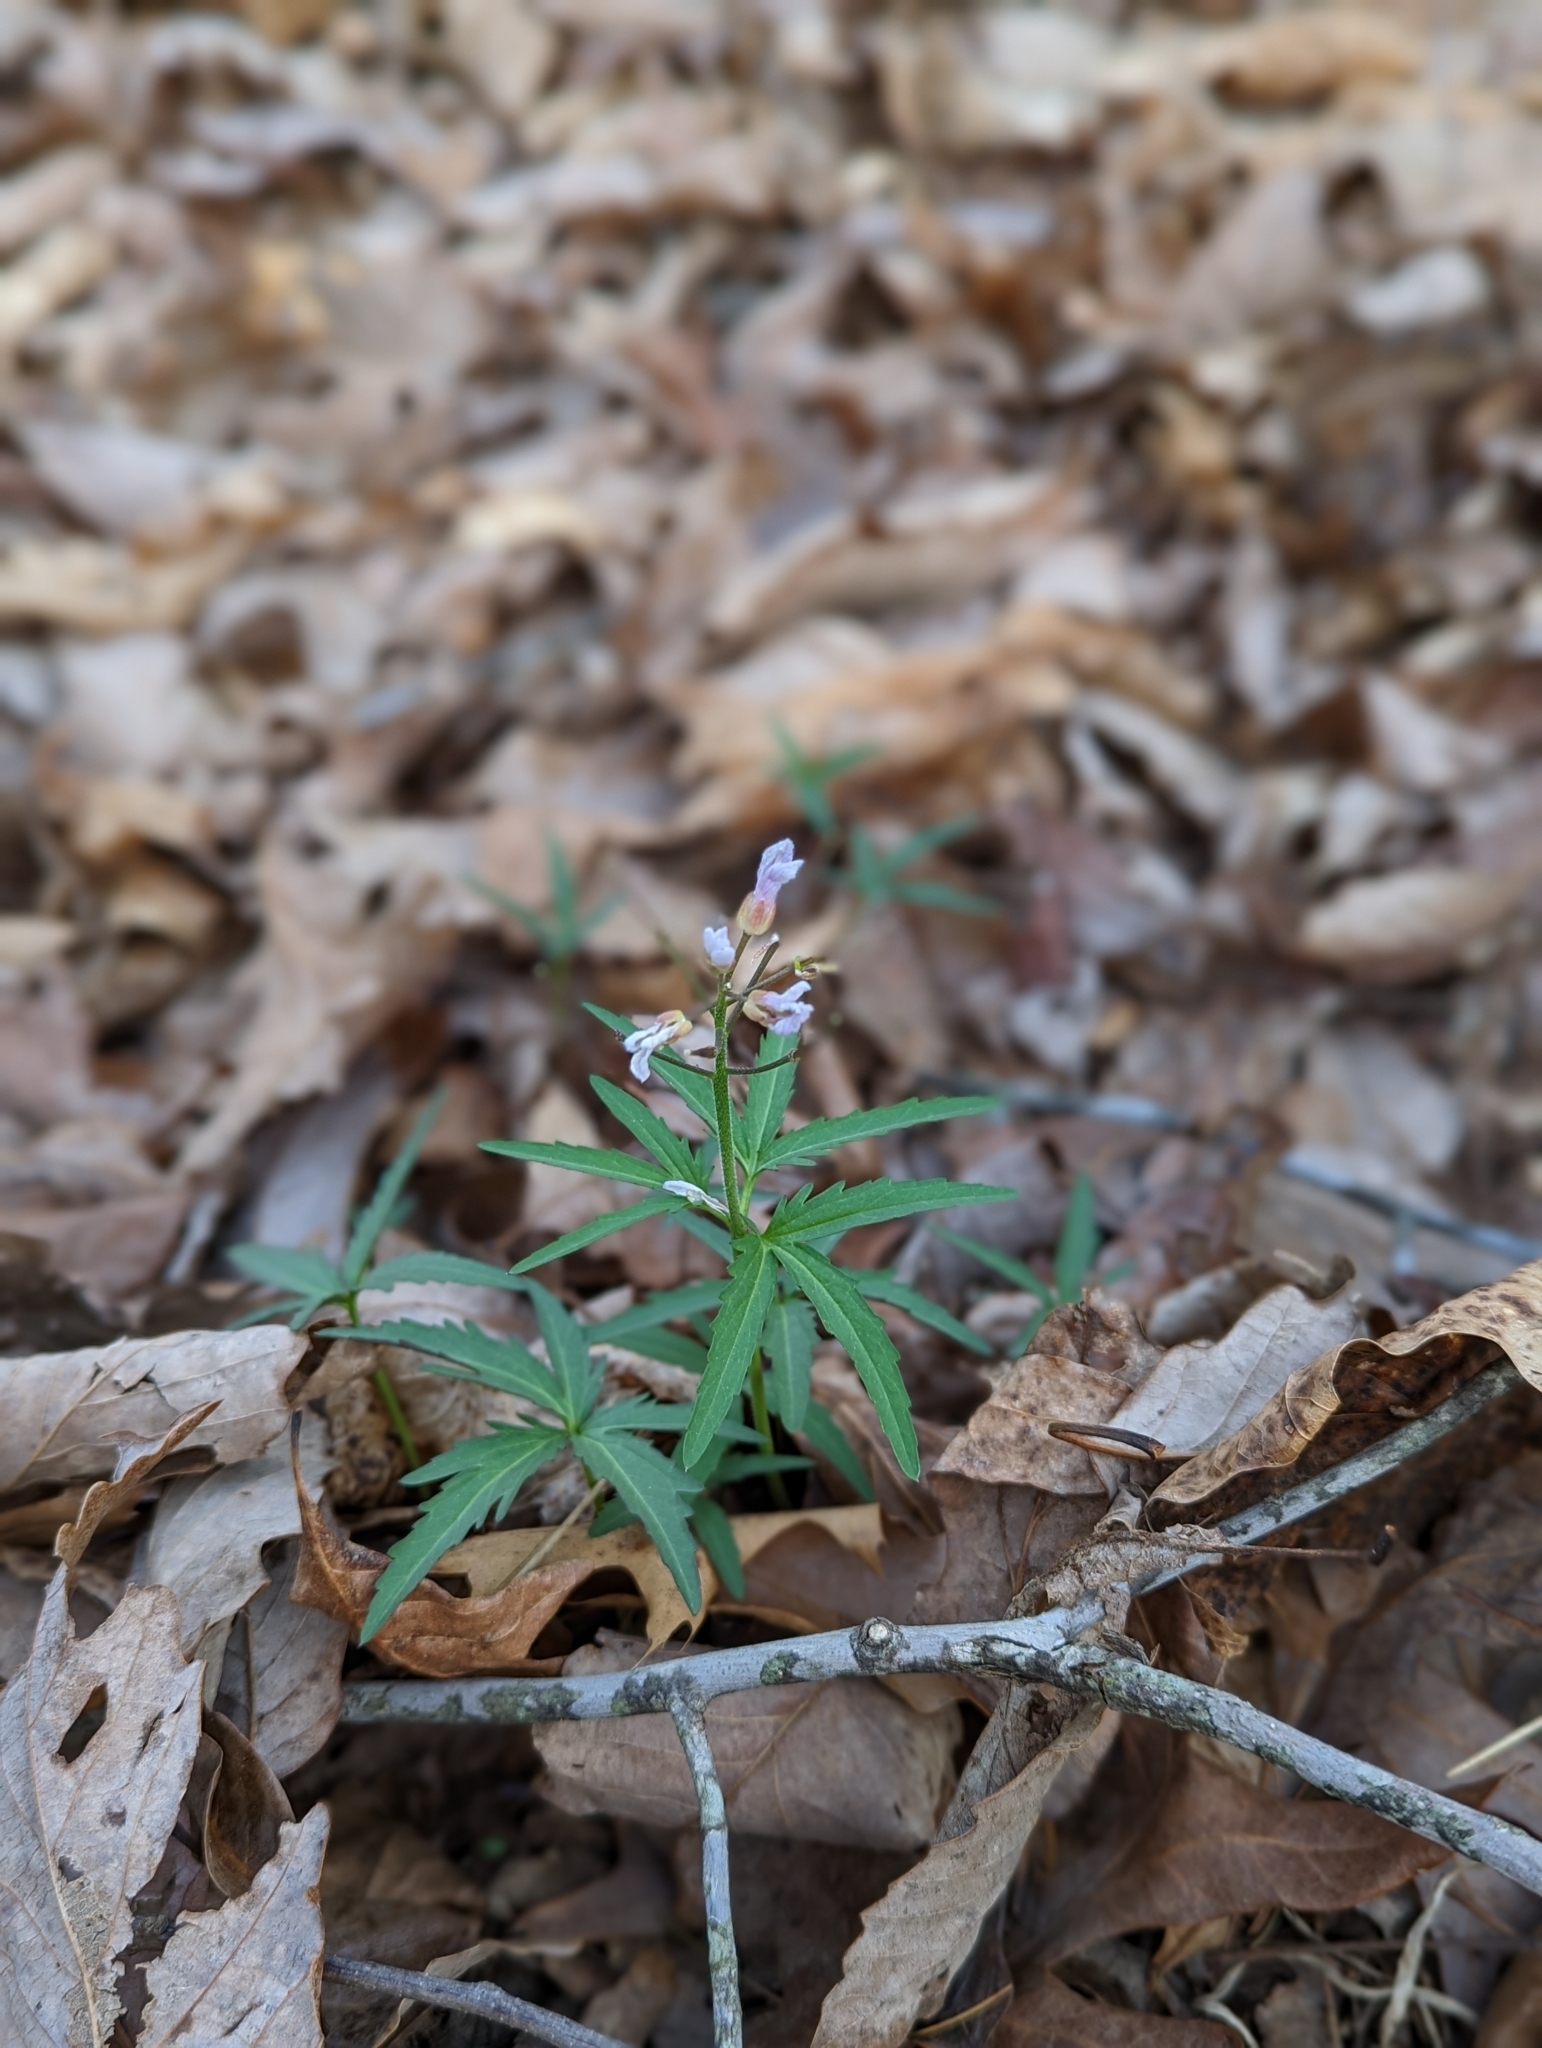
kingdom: Plantae
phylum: Tracheophyta
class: Magnoliopsida
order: Brassicales
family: Brassicaceae
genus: Cardamine
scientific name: Cardamine concatenata
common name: Cut-leaf toothcup
